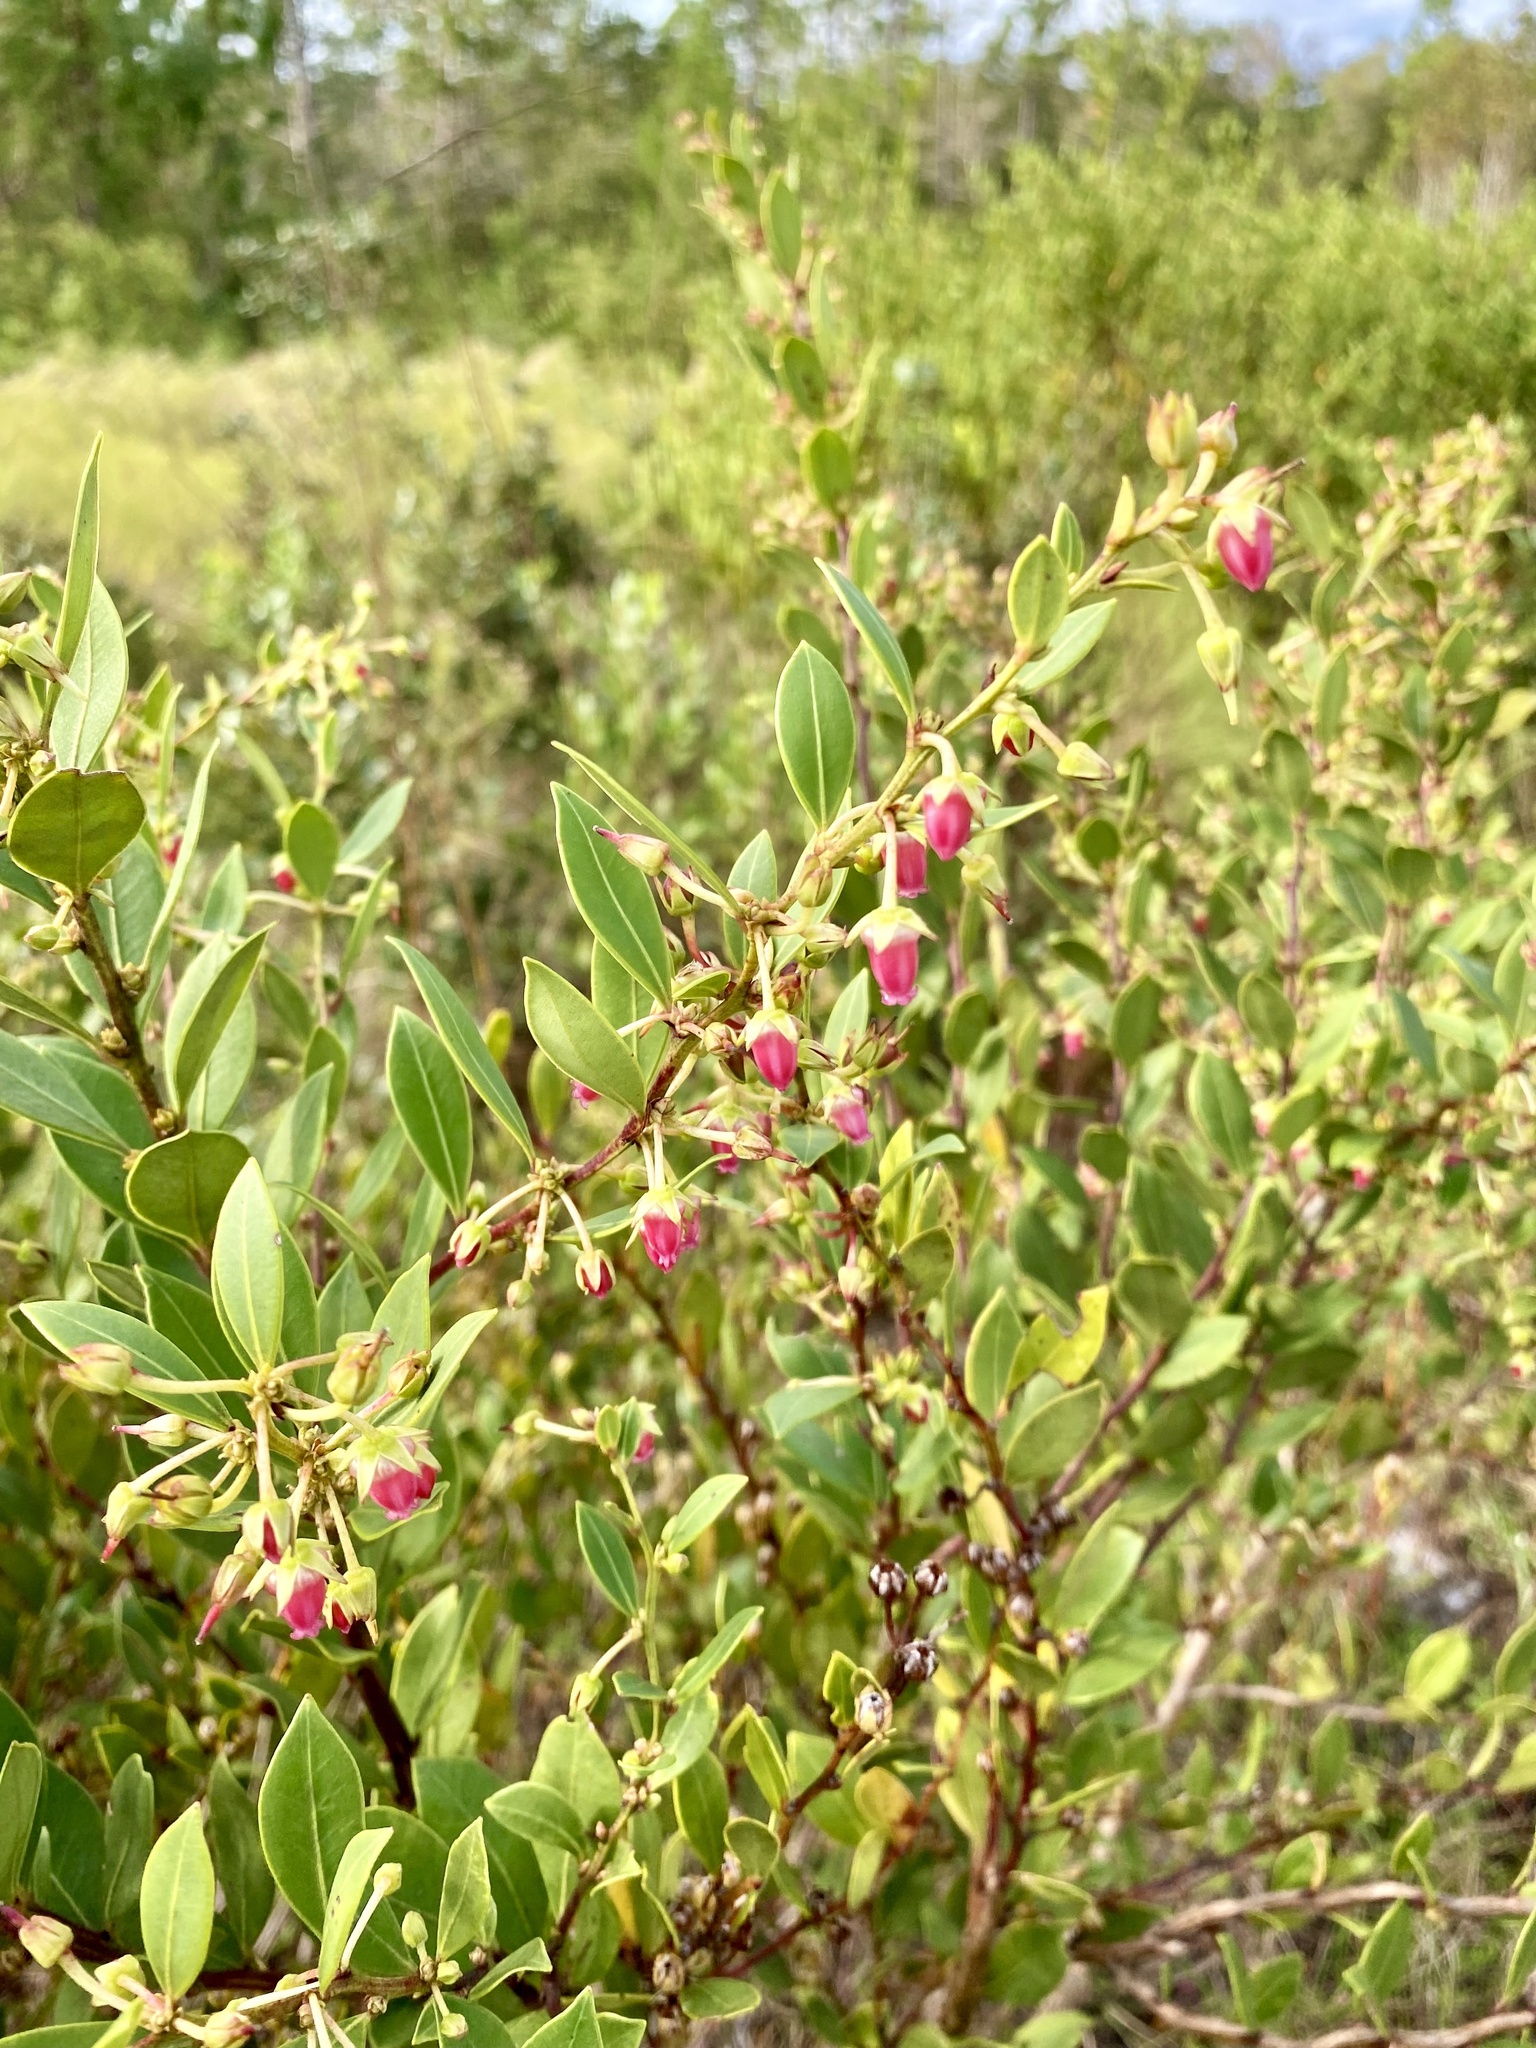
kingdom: Plantae
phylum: Tracheophyta
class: Magnoliopsida
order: Ericales
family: Ericaceae
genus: Lyonia
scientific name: Lyonia lucida
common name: Fetterbush
